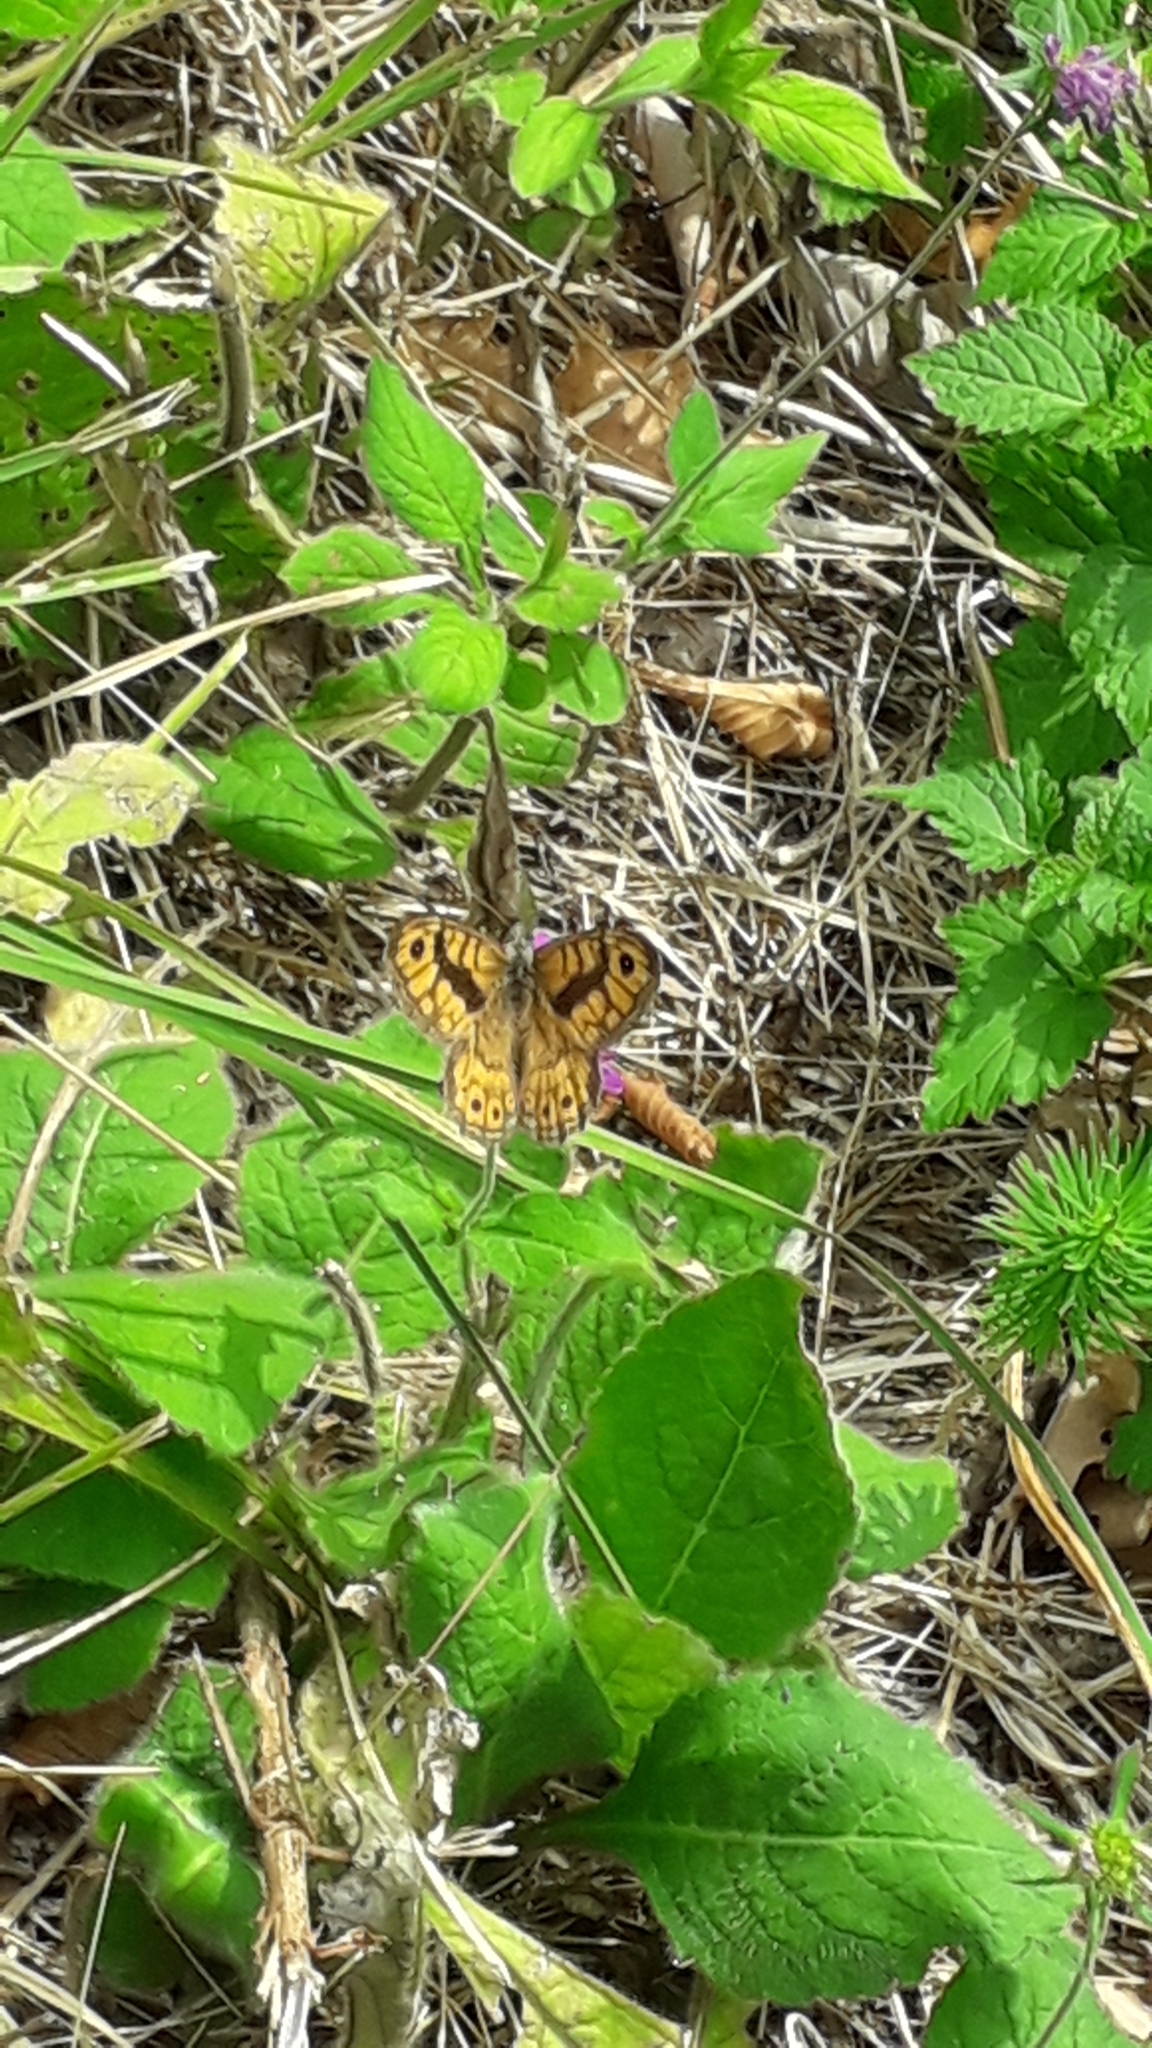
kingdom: Animalia
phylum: Arthropoda
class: Insecta
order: Lepidoptera
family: Nymphalidae
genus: Pararge
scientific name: Pararge Lasiommata megera
